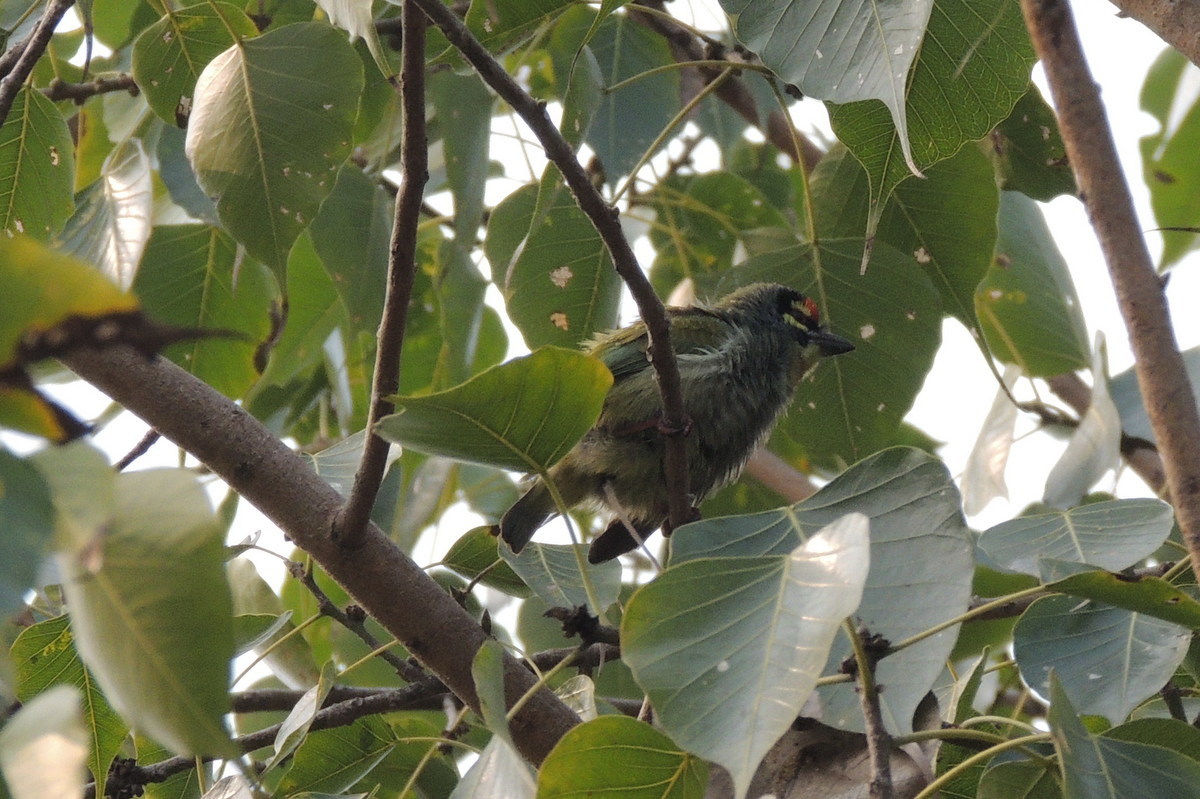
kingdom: Animalia
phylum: Chordata
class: Aves
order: Piciformes
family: Megalaimidae
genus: Psilopogon
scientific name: Psilopogon haemacephalus
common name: Coppersmith barbet
